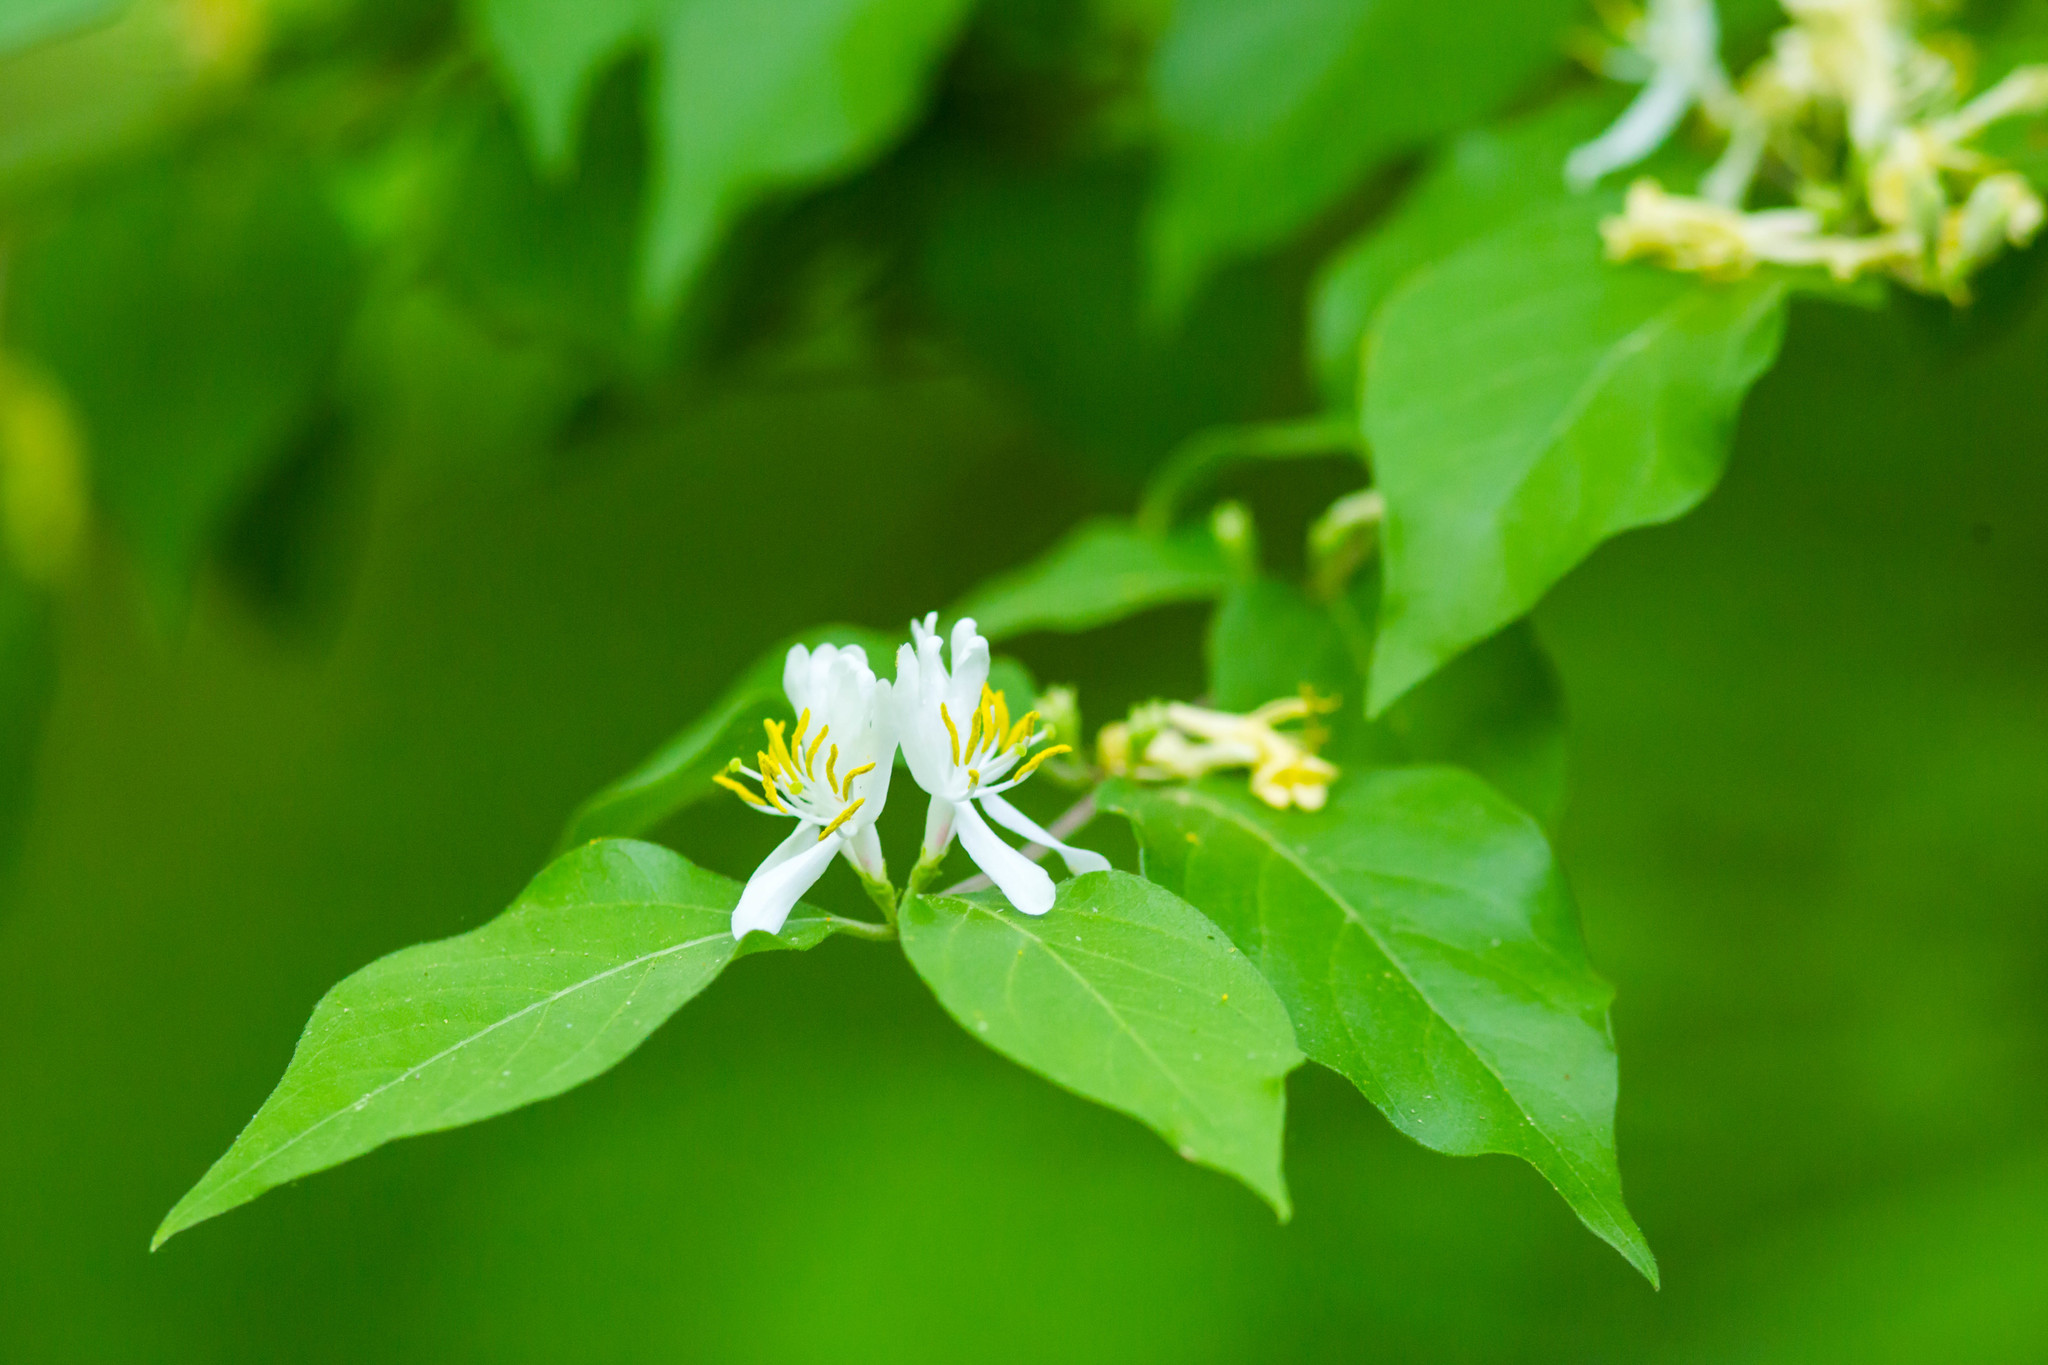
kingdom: Plantae
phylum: Tracheophyta
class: Magnoliopsida
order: Dipsacales
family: Caprifoliaceae
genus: Lonicera
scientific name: Lonicera maackii
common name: Amur honeysuckle
